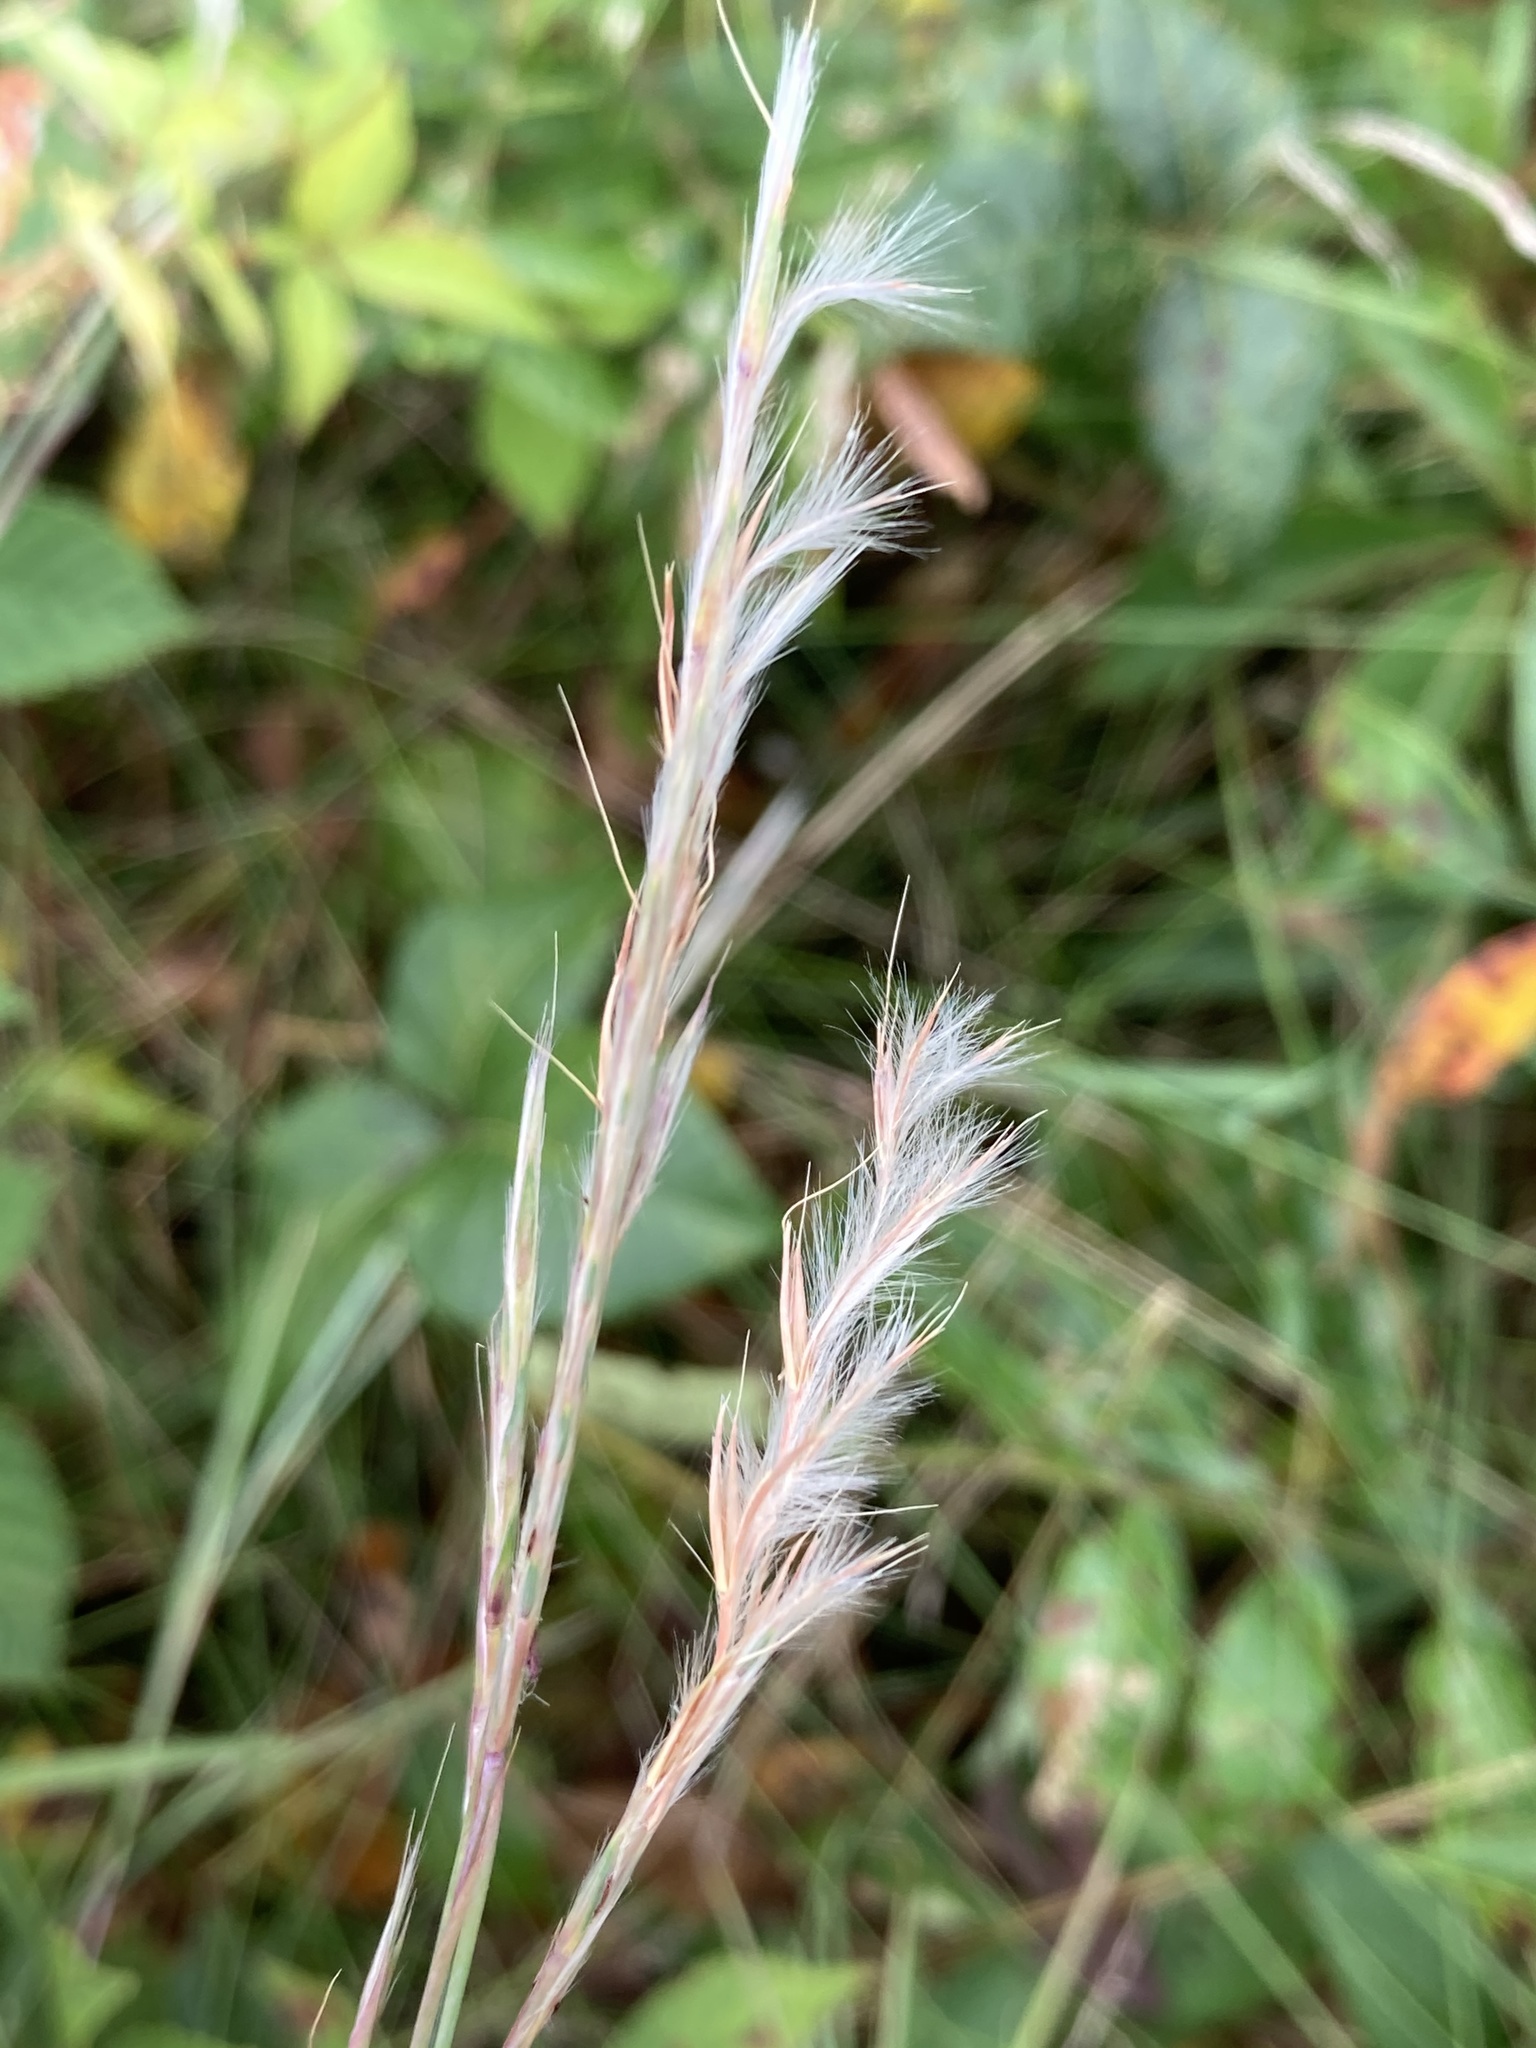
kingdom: Plantae
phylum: Tracheophyta
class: Liliopsida
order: Poales
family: Poaceae
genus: Schizachyrium
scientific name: Schizachyrium scoparium
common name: Little bluestem
